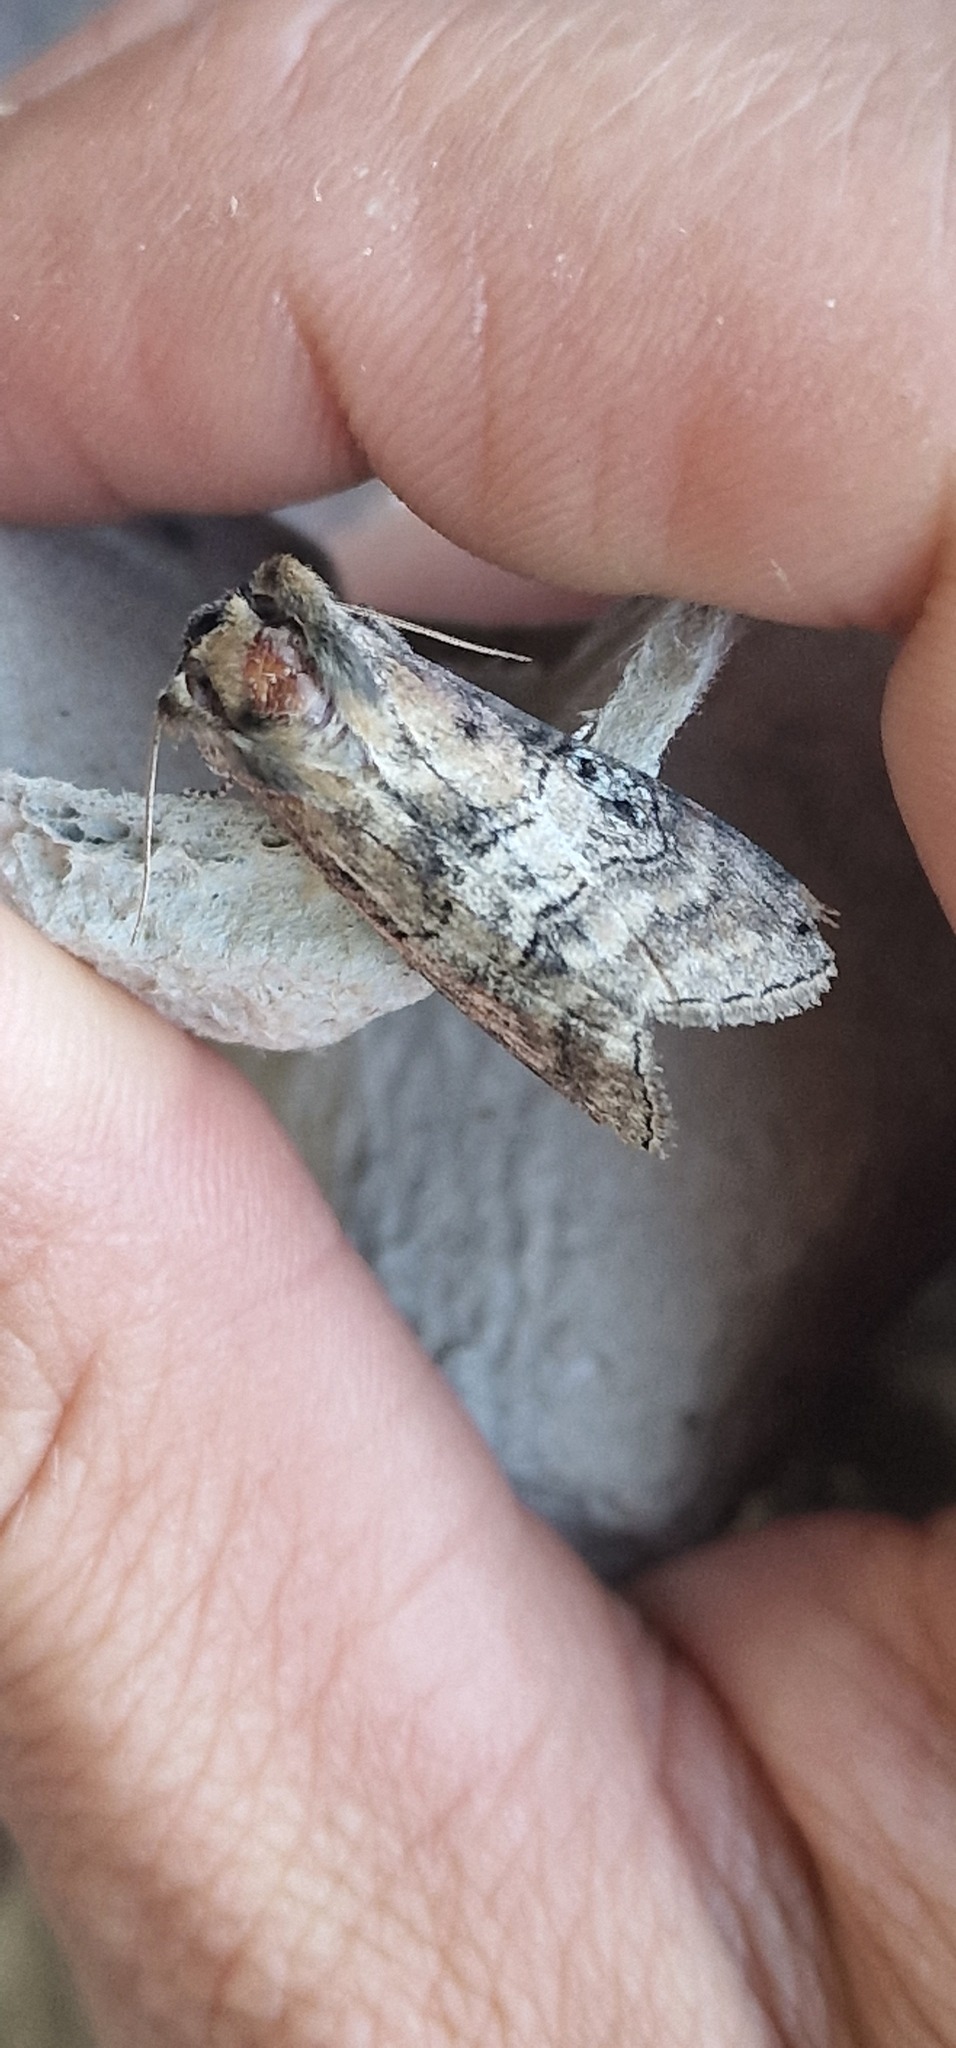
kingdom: Animalia
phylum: Arthropoda
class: Insecta
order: Lepidoptera
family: Drepanidae
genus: Tethea
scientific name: Tethea ocularis
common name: Figure of eighty
